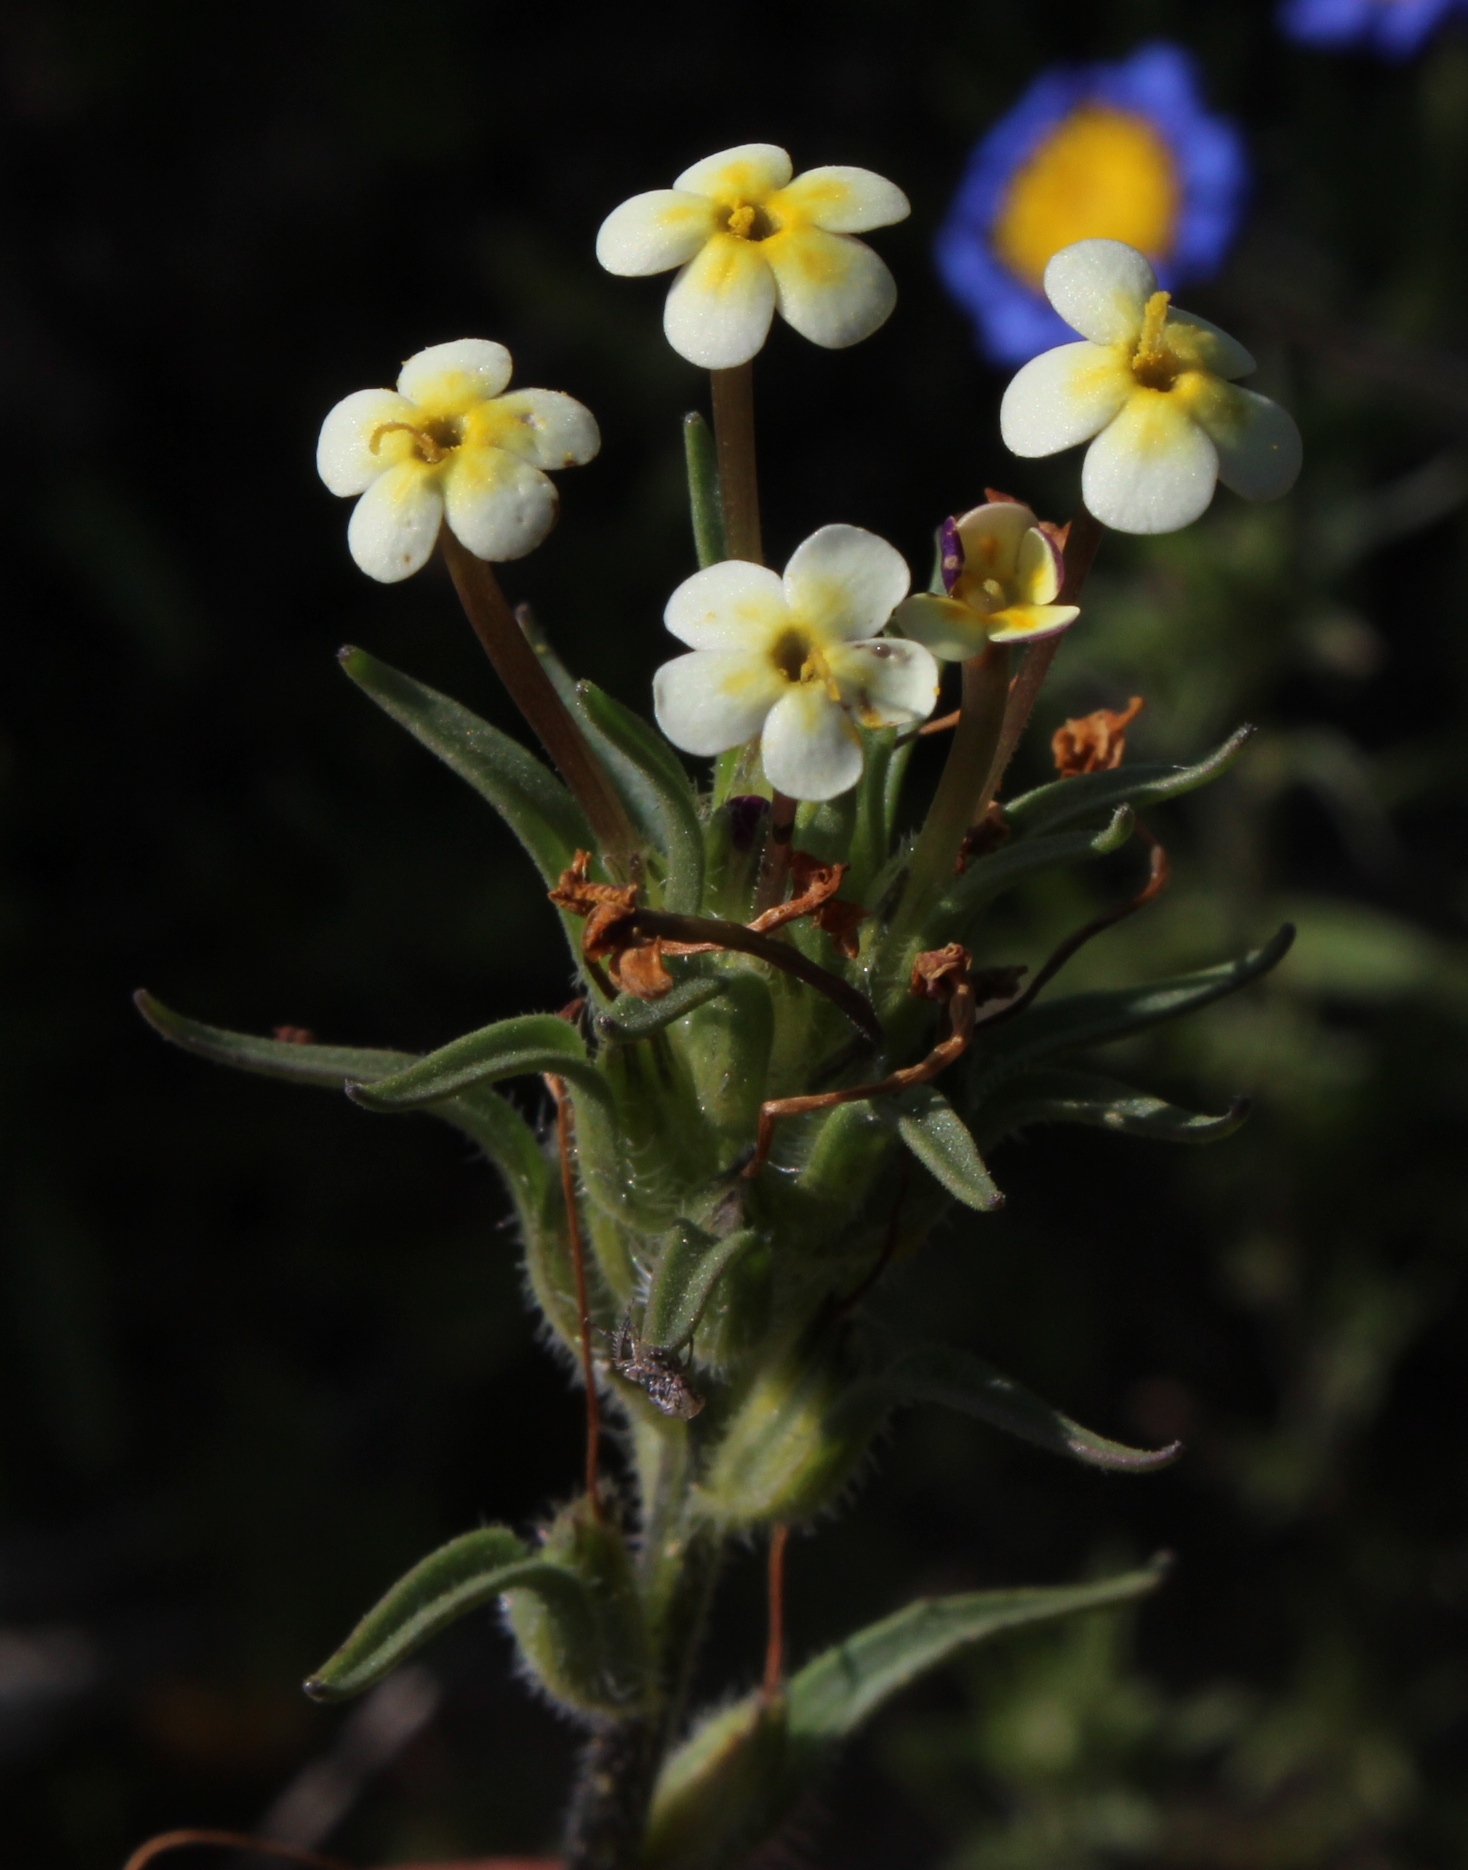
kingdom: Plantae
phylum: Tracheophyta
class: Magnoliopsida
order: Lamiales
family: Scrophulariaceae
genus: Zaluzianskya
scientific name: Zaluzianskya benthamiana
